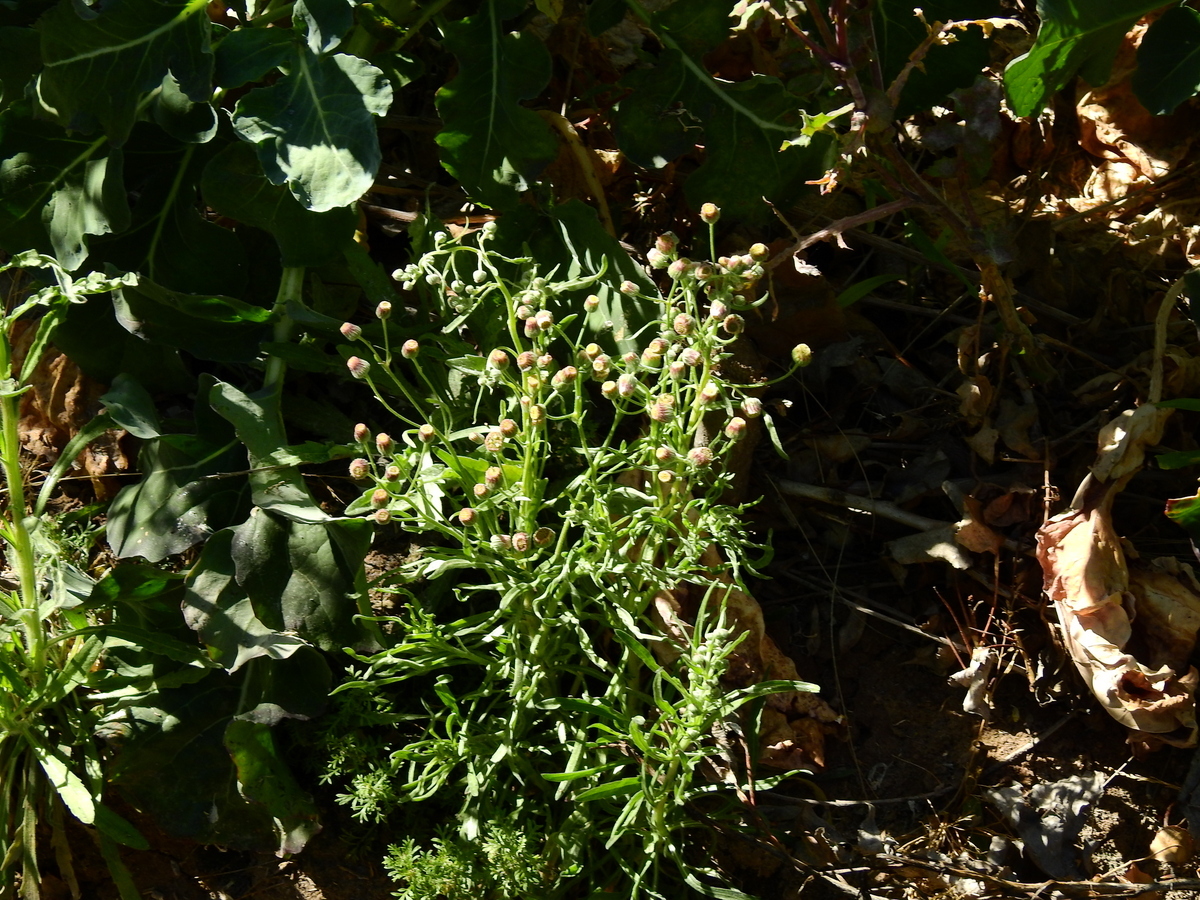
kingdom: Plantae
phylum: Tracheophyta
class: Magnoliopsida
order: Asterales
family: Asteraceae
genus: Erigeron
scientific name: Erigeron bonariensis
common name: Argentine fleabane
